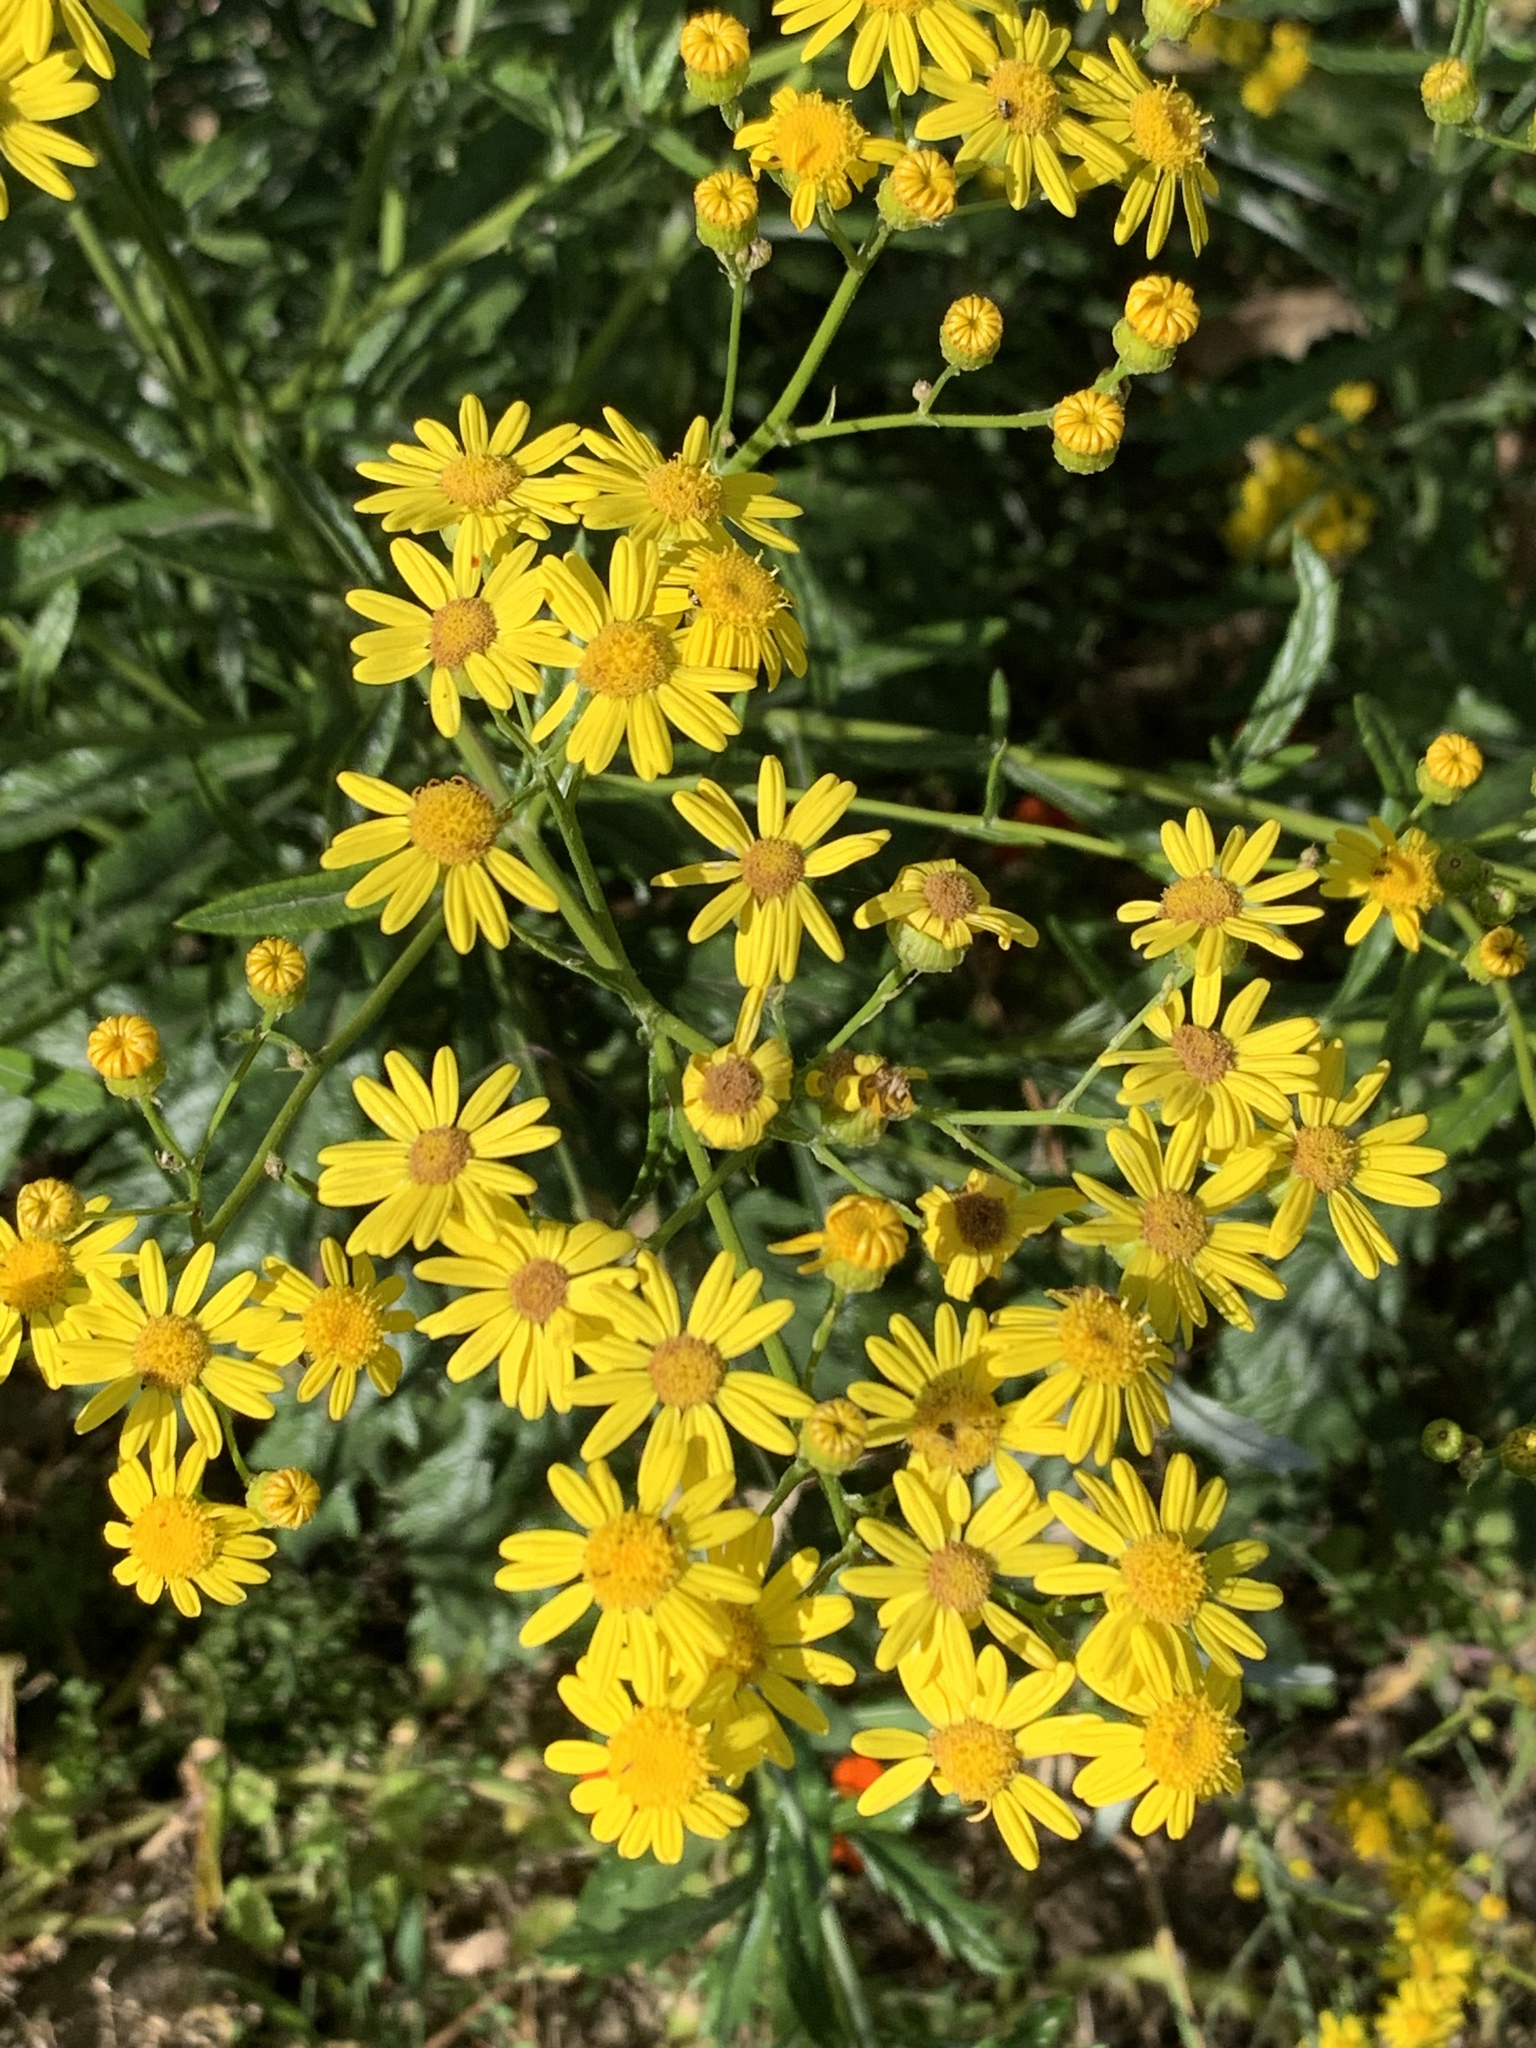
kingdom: Plantae
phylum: Tracheophyta
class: Magnoliopsida
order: Asterales
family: Asteraceae
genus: Senecio
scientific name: Senecio pterophorus
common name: Shoddy ragwort
